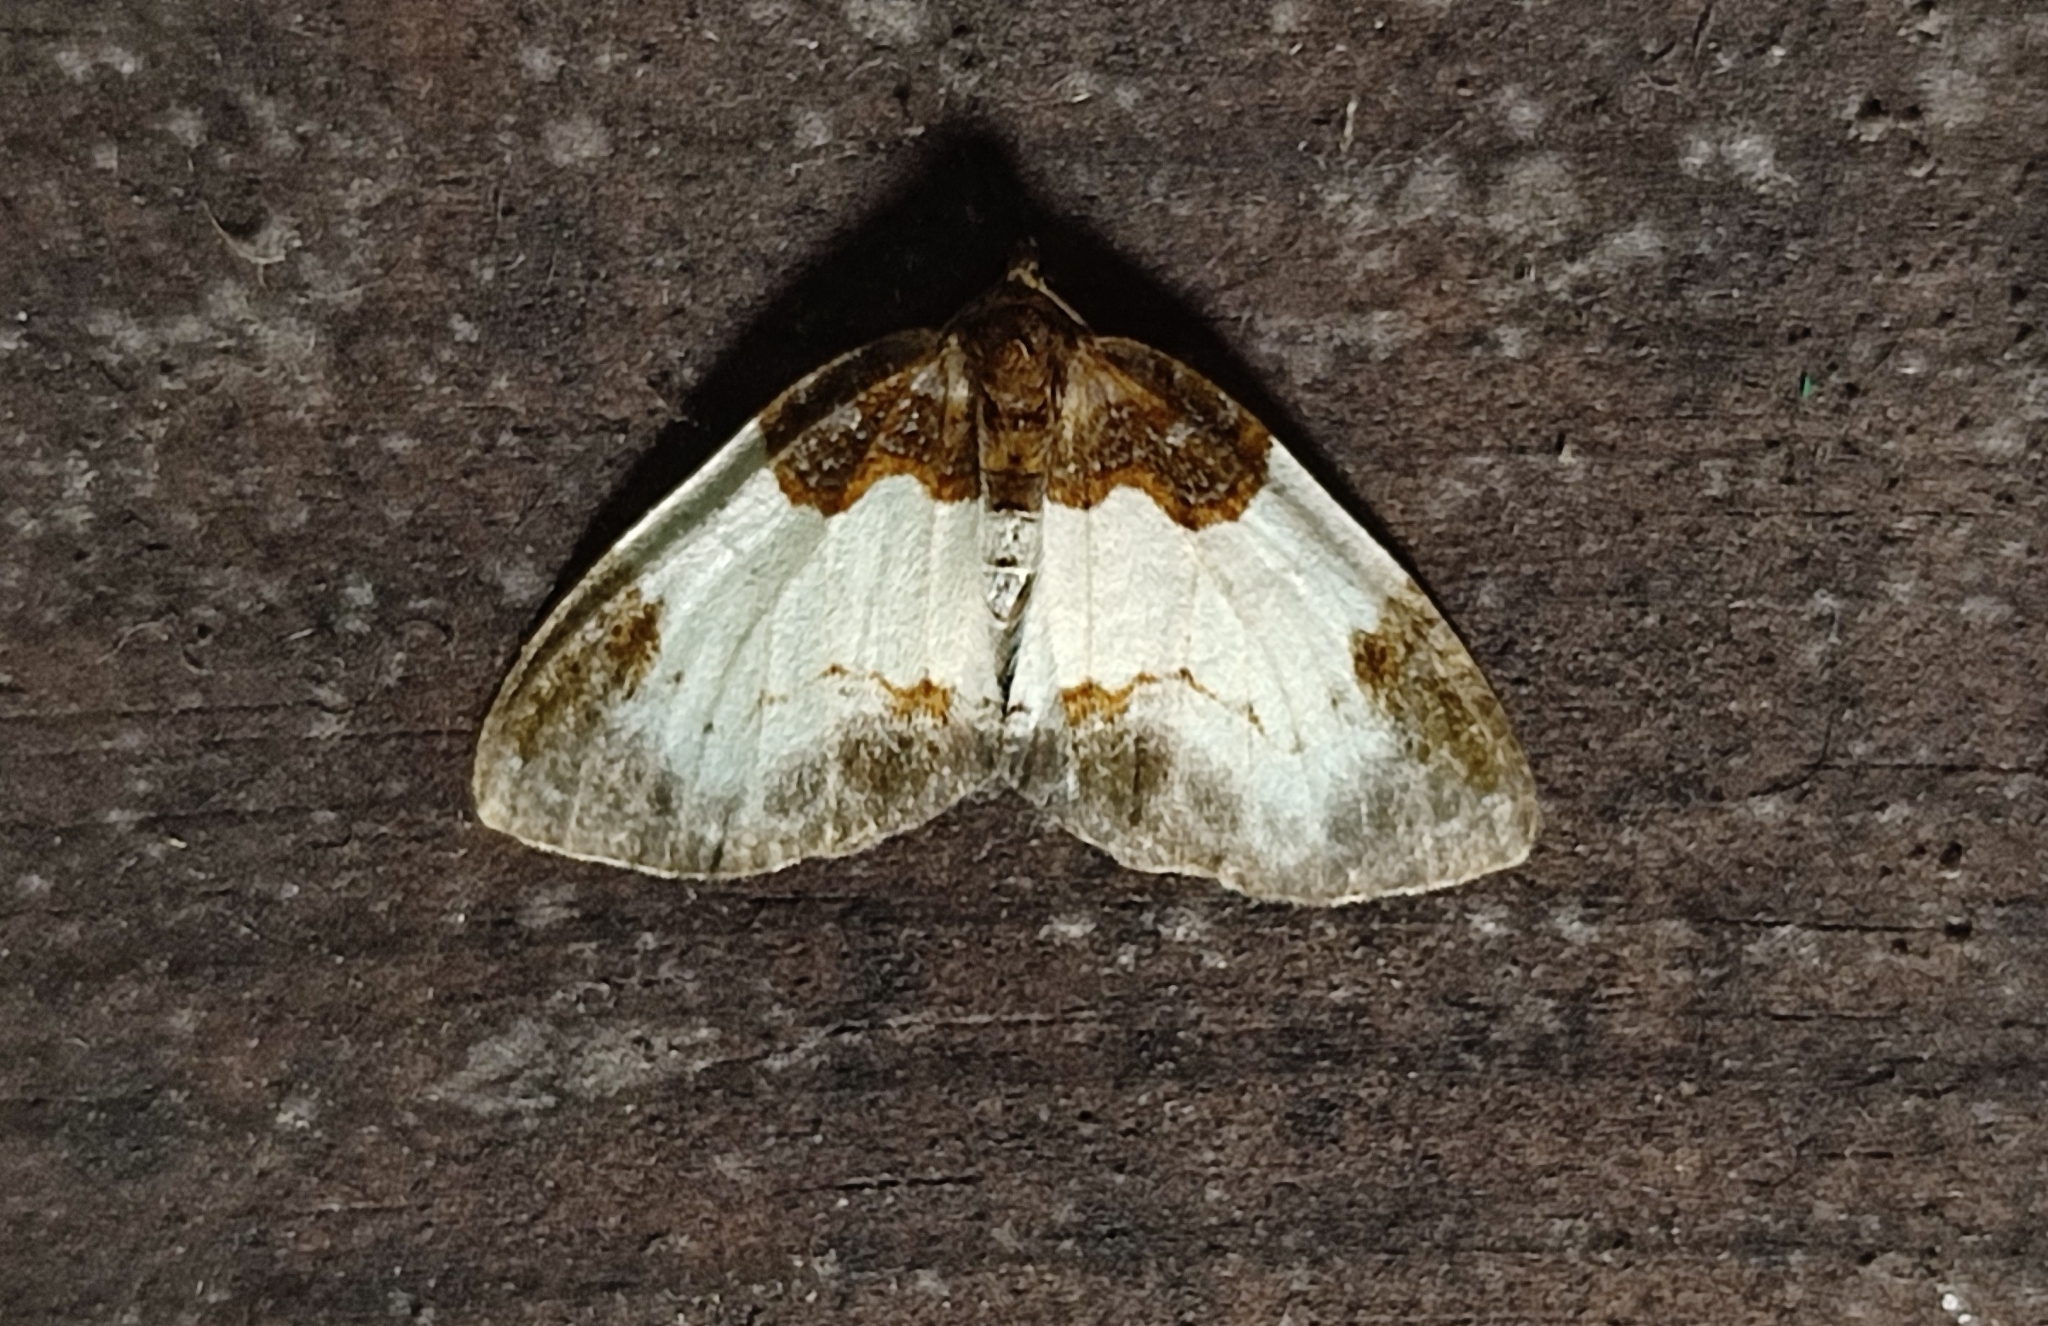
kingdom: Animalia
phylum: Arthropoda
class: Insecta
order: Lepidoptera
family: Geometridae
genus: Mesoleuca
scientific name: Mesoleuca albicillata
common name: Beautiful carpet
